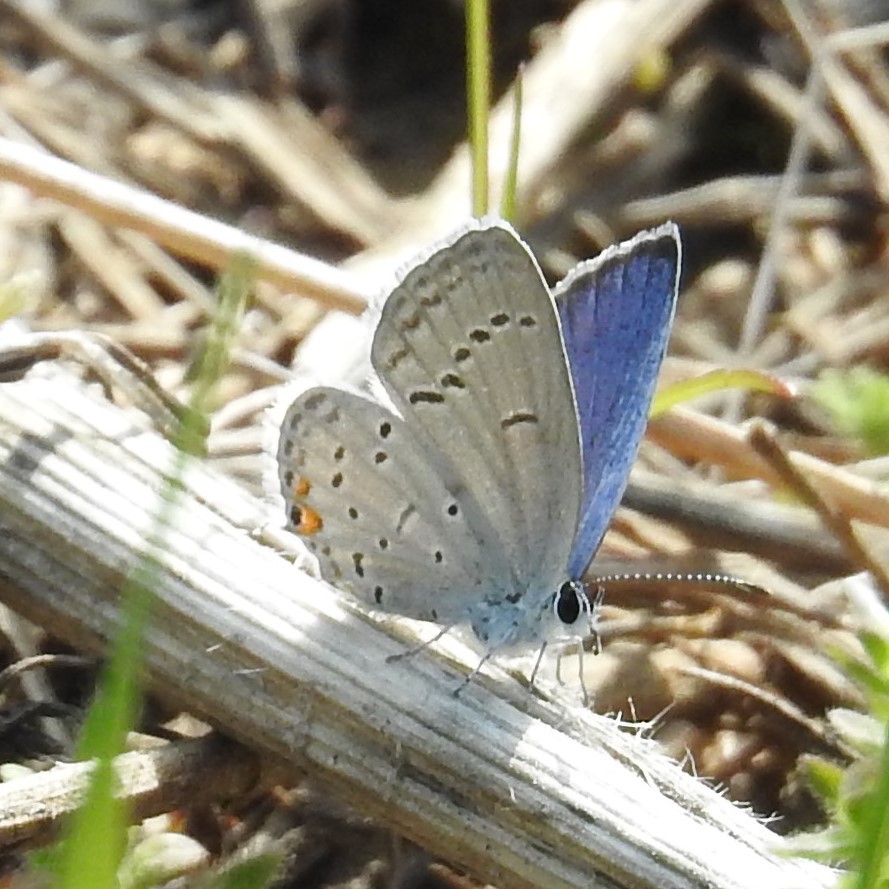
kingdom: Animalia
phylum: Arthropoda
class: Insecta
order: Lepidoptera
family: Lycaenidae
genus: Elkalyce
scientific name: Elkalyce comyntas
